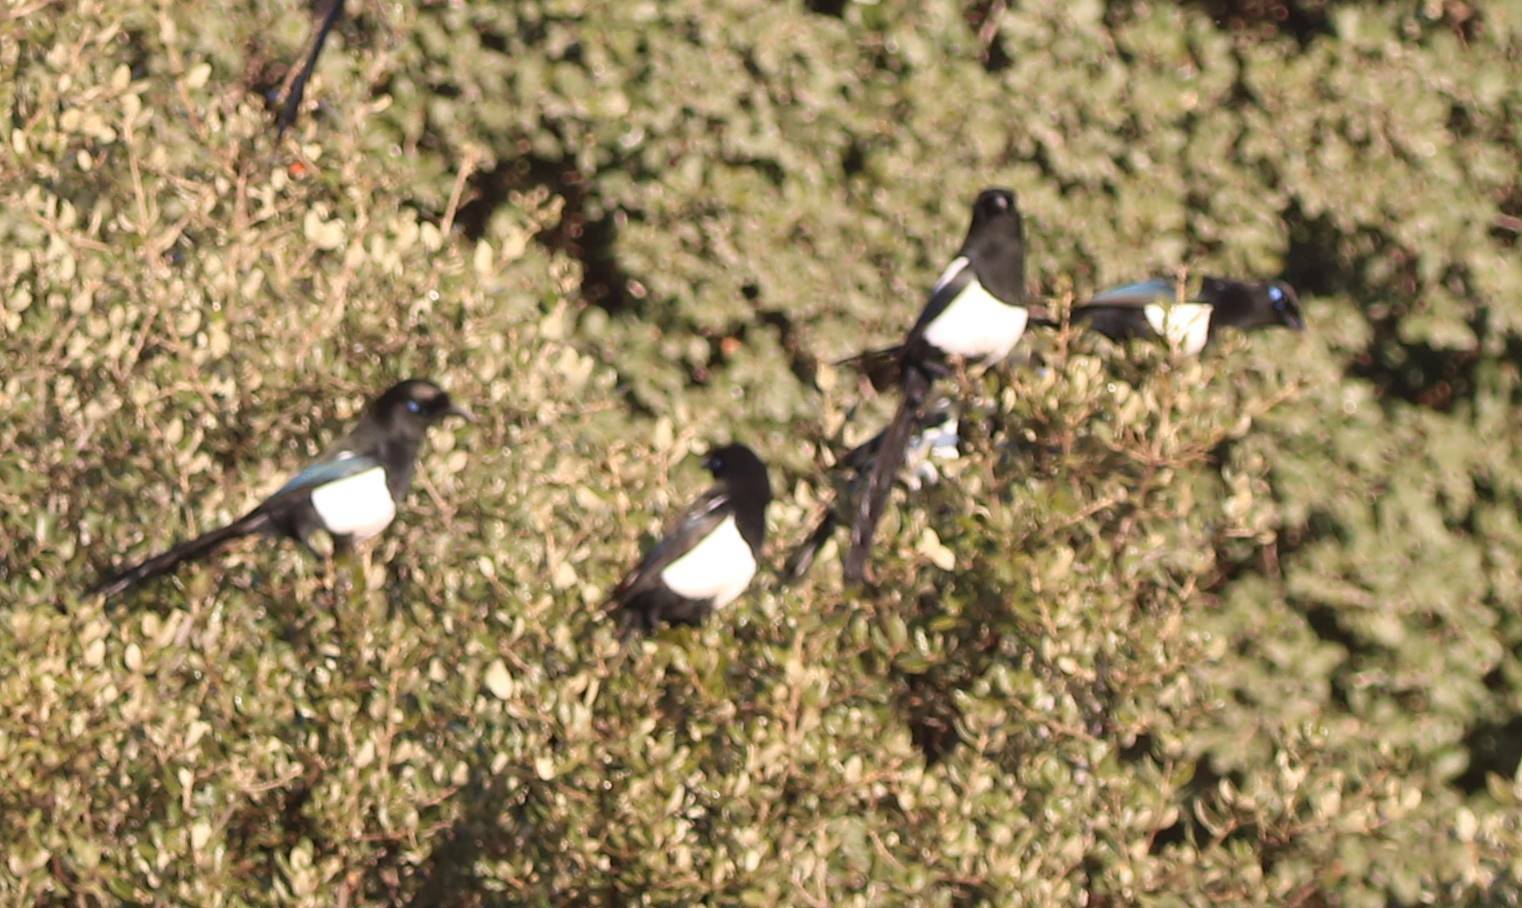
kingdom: Animalia
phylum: Chordata
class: Aves
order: Passeriformes
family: Corvidae
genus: Pica
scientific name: Pica mauritanica
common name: Maghreb magpie
